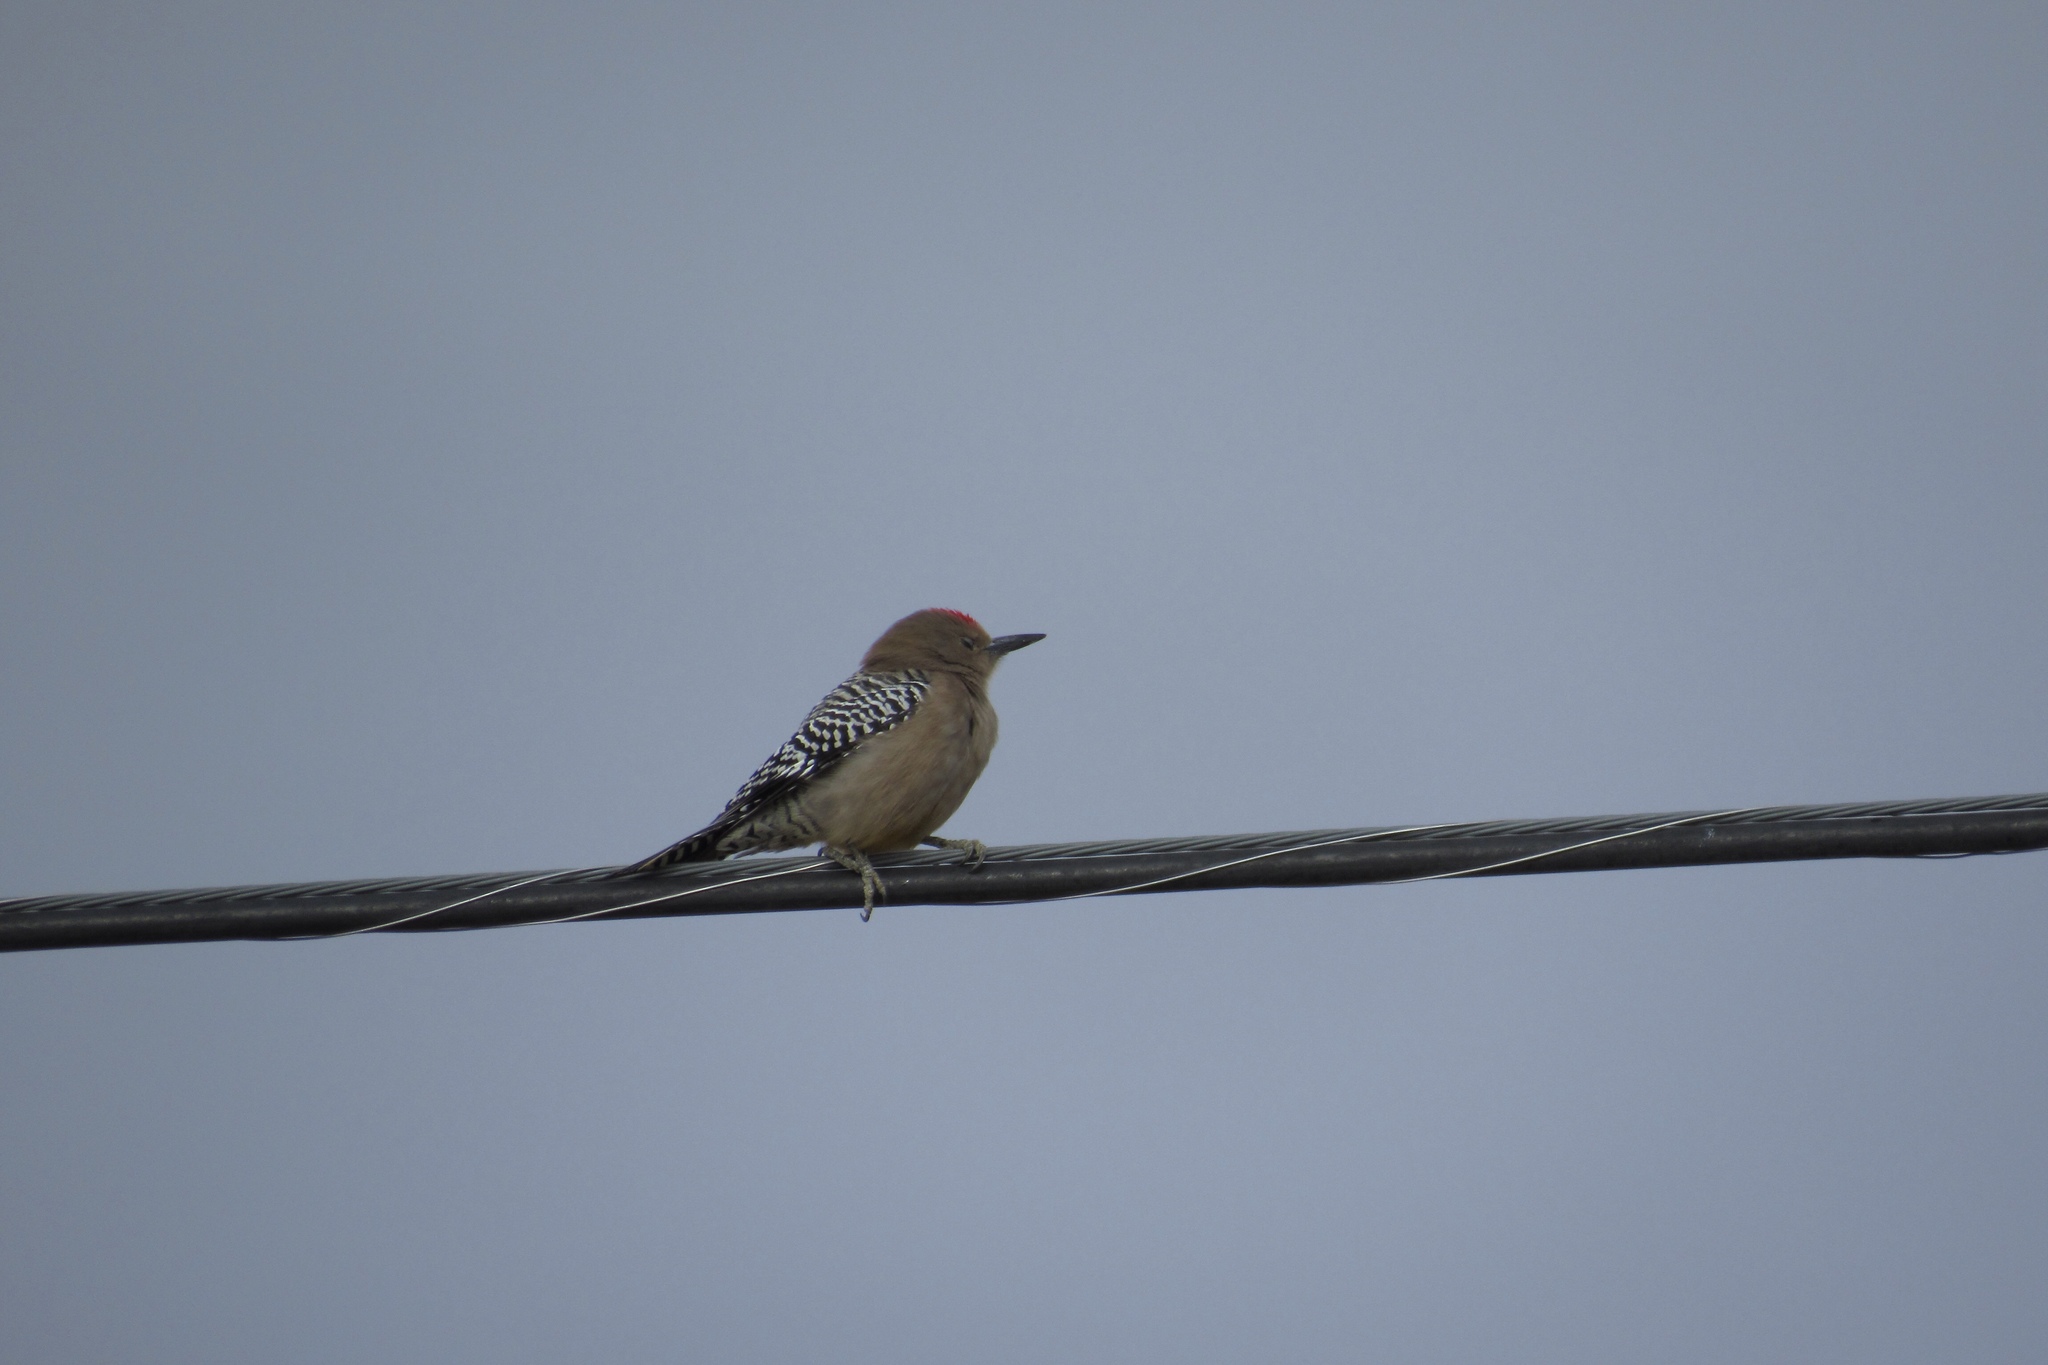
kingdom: Animalia
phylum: Chordata
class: Aves
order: Piciformes
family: Picidae
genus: Melanerpes
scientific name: Melanerpes uropygialis
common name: Gila woodpecker
